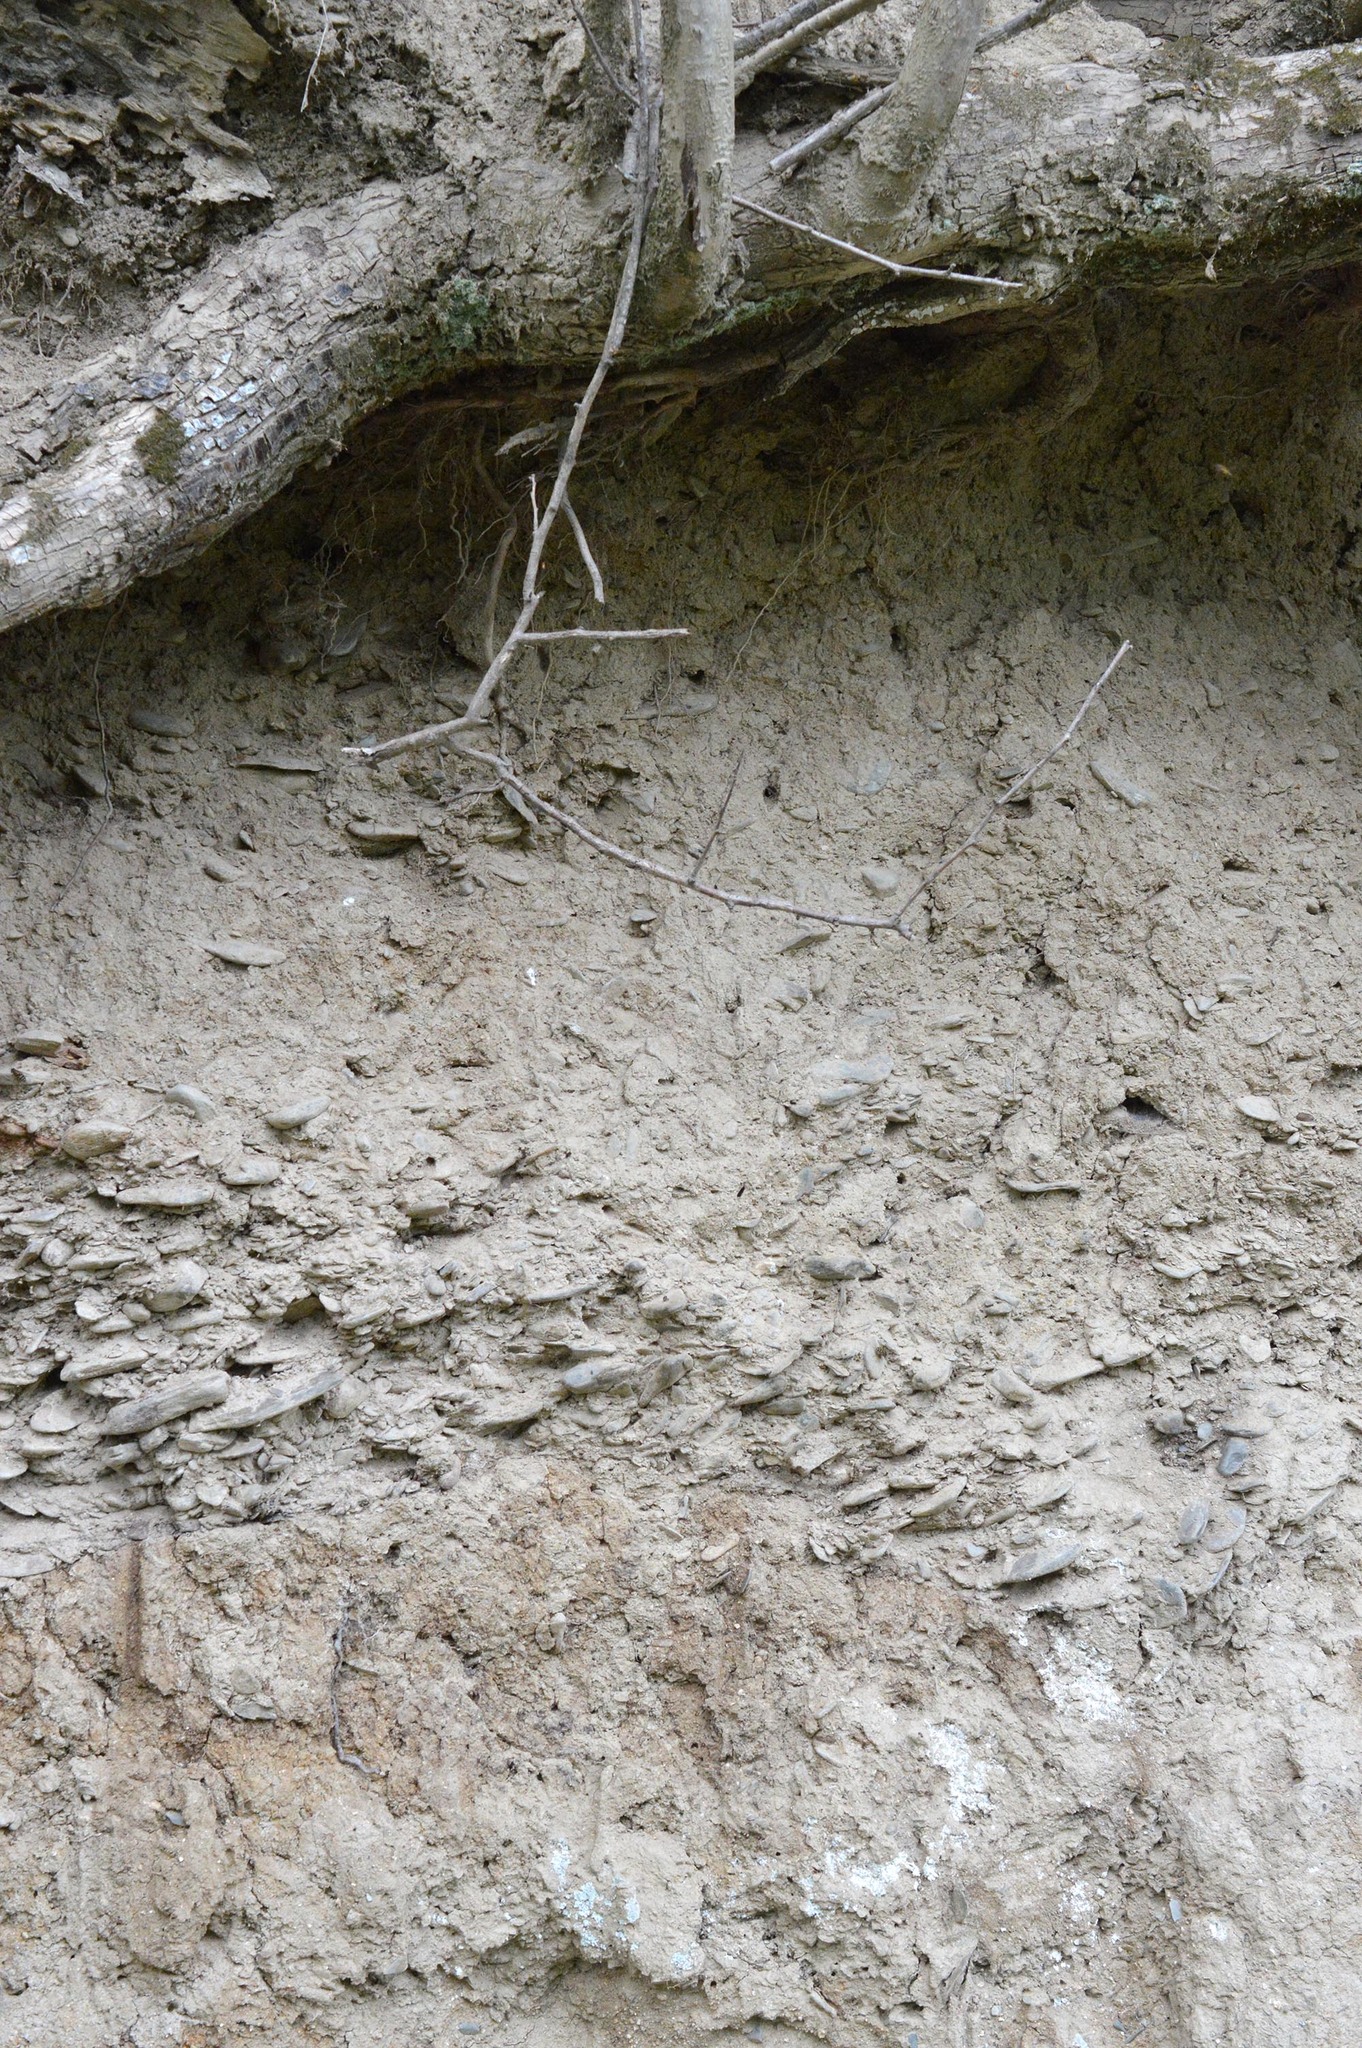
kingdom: Animalia
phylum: Arthropoda
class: Insecta
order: Hymenoptera
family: Formicidae
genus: Lasius
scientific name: Lasius fuliginosus
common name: Jet ant
